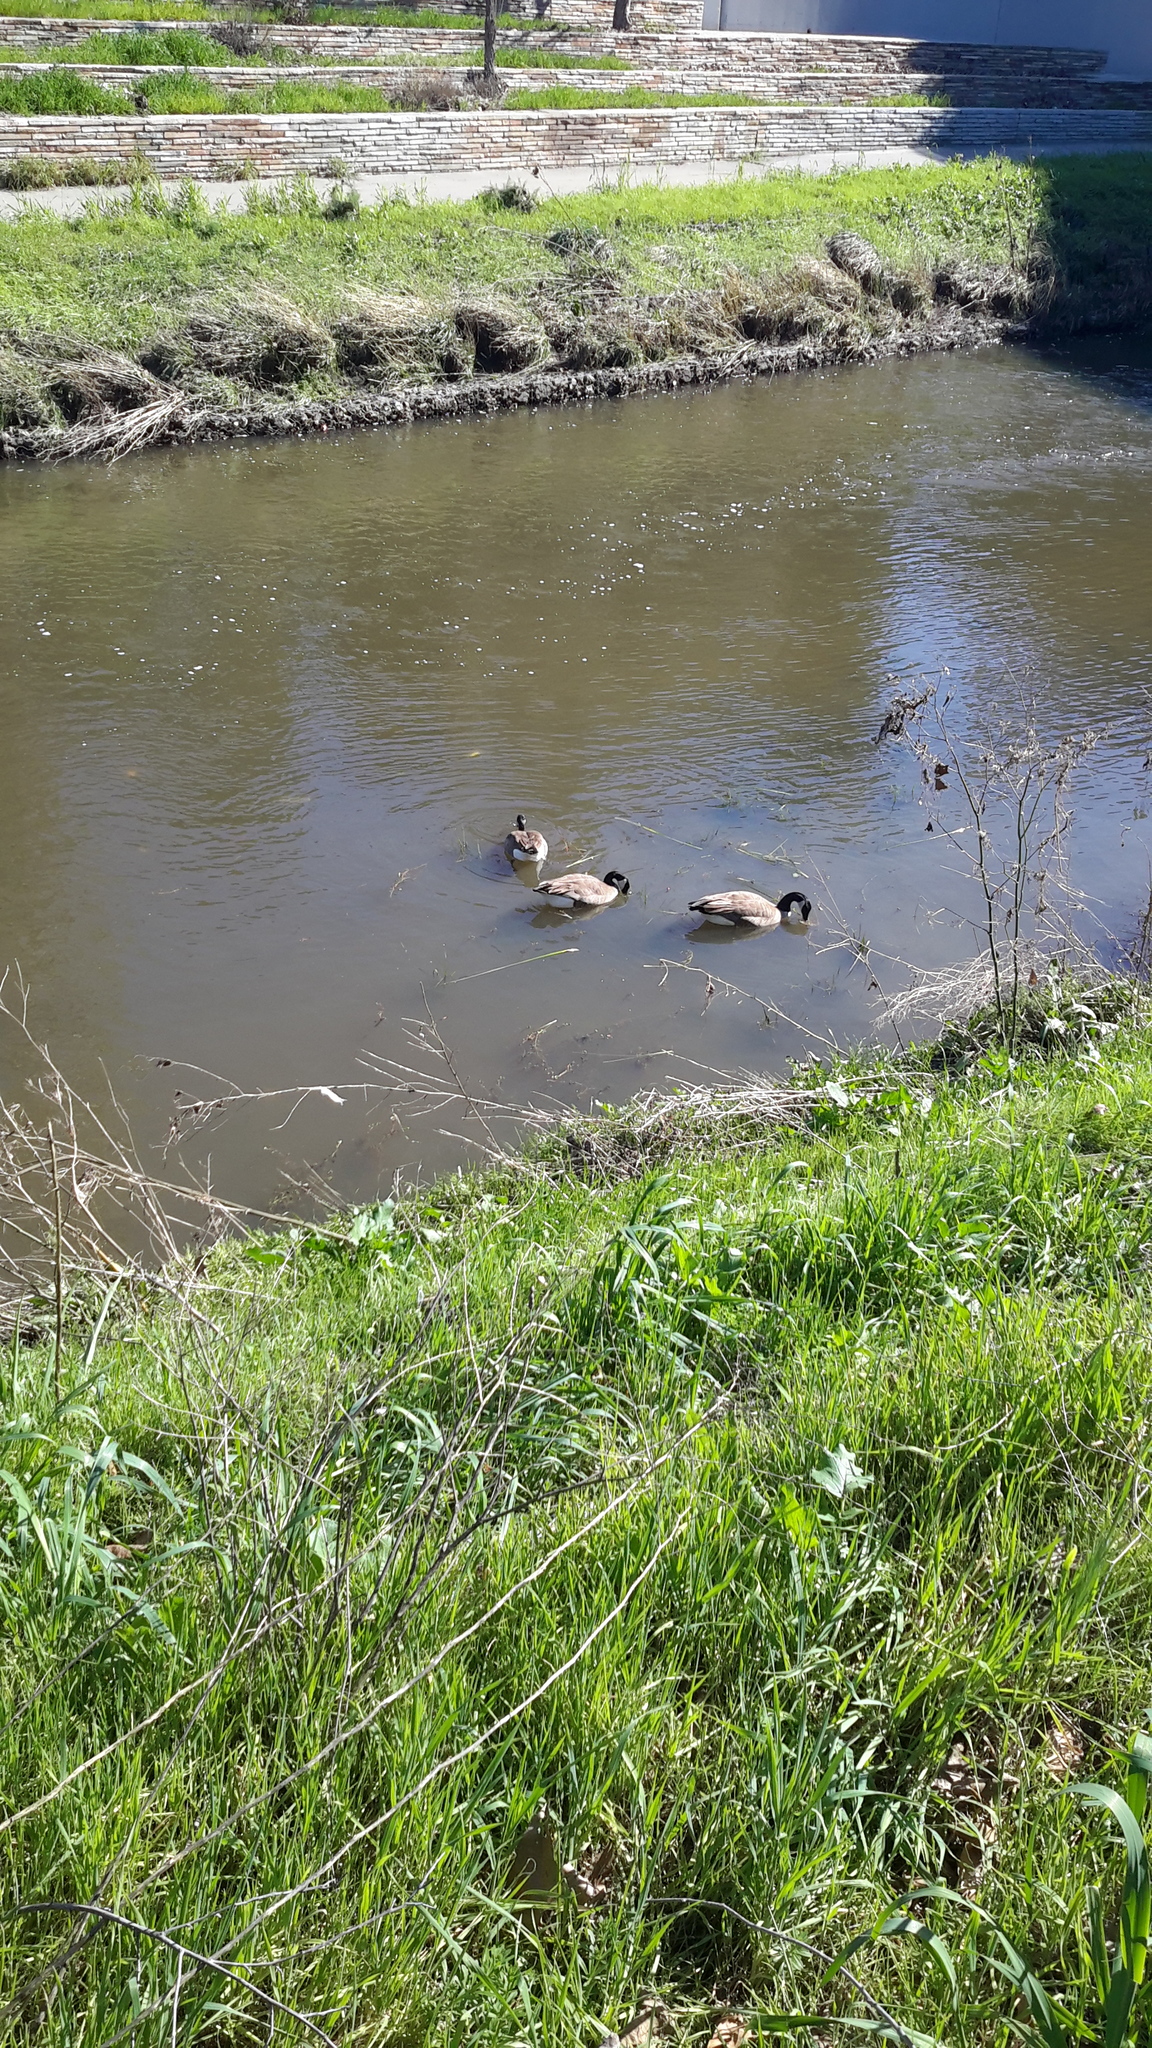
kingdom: Animalia
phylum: Chordata
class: Aves
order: Anseriformes
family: Anatidae
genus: Branta
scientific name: Branta canadensis
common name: Canada goose
